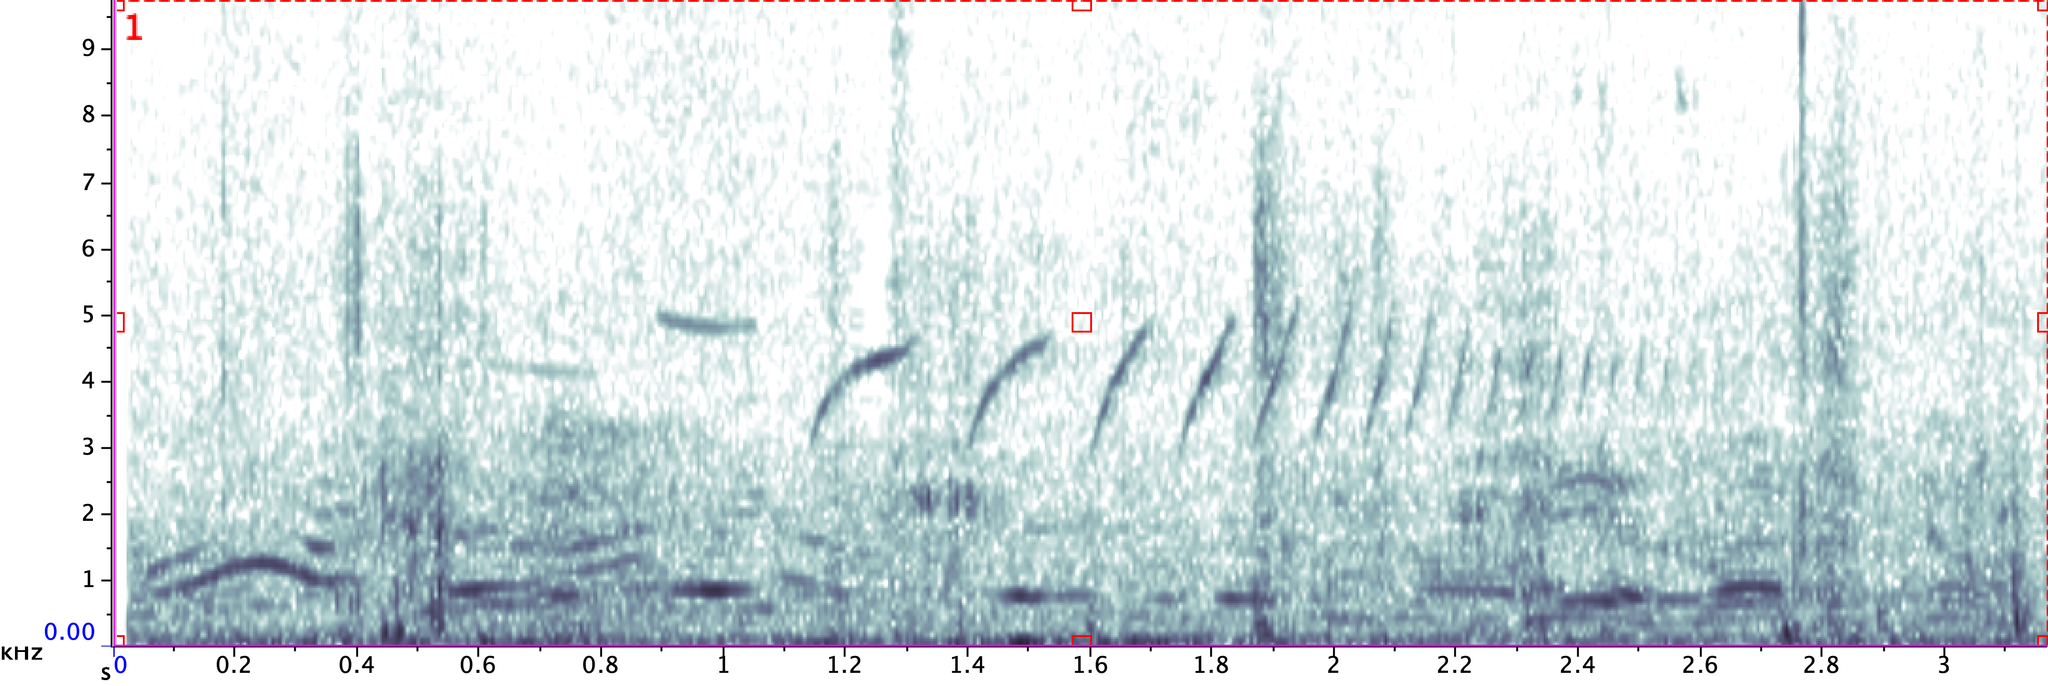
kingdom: Animalia
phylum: Chordata
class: Aves
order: Passeriformes
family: Passerellidae
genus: Spizella
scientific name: Spizella atrogularis
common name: Black-chinned sparrow
